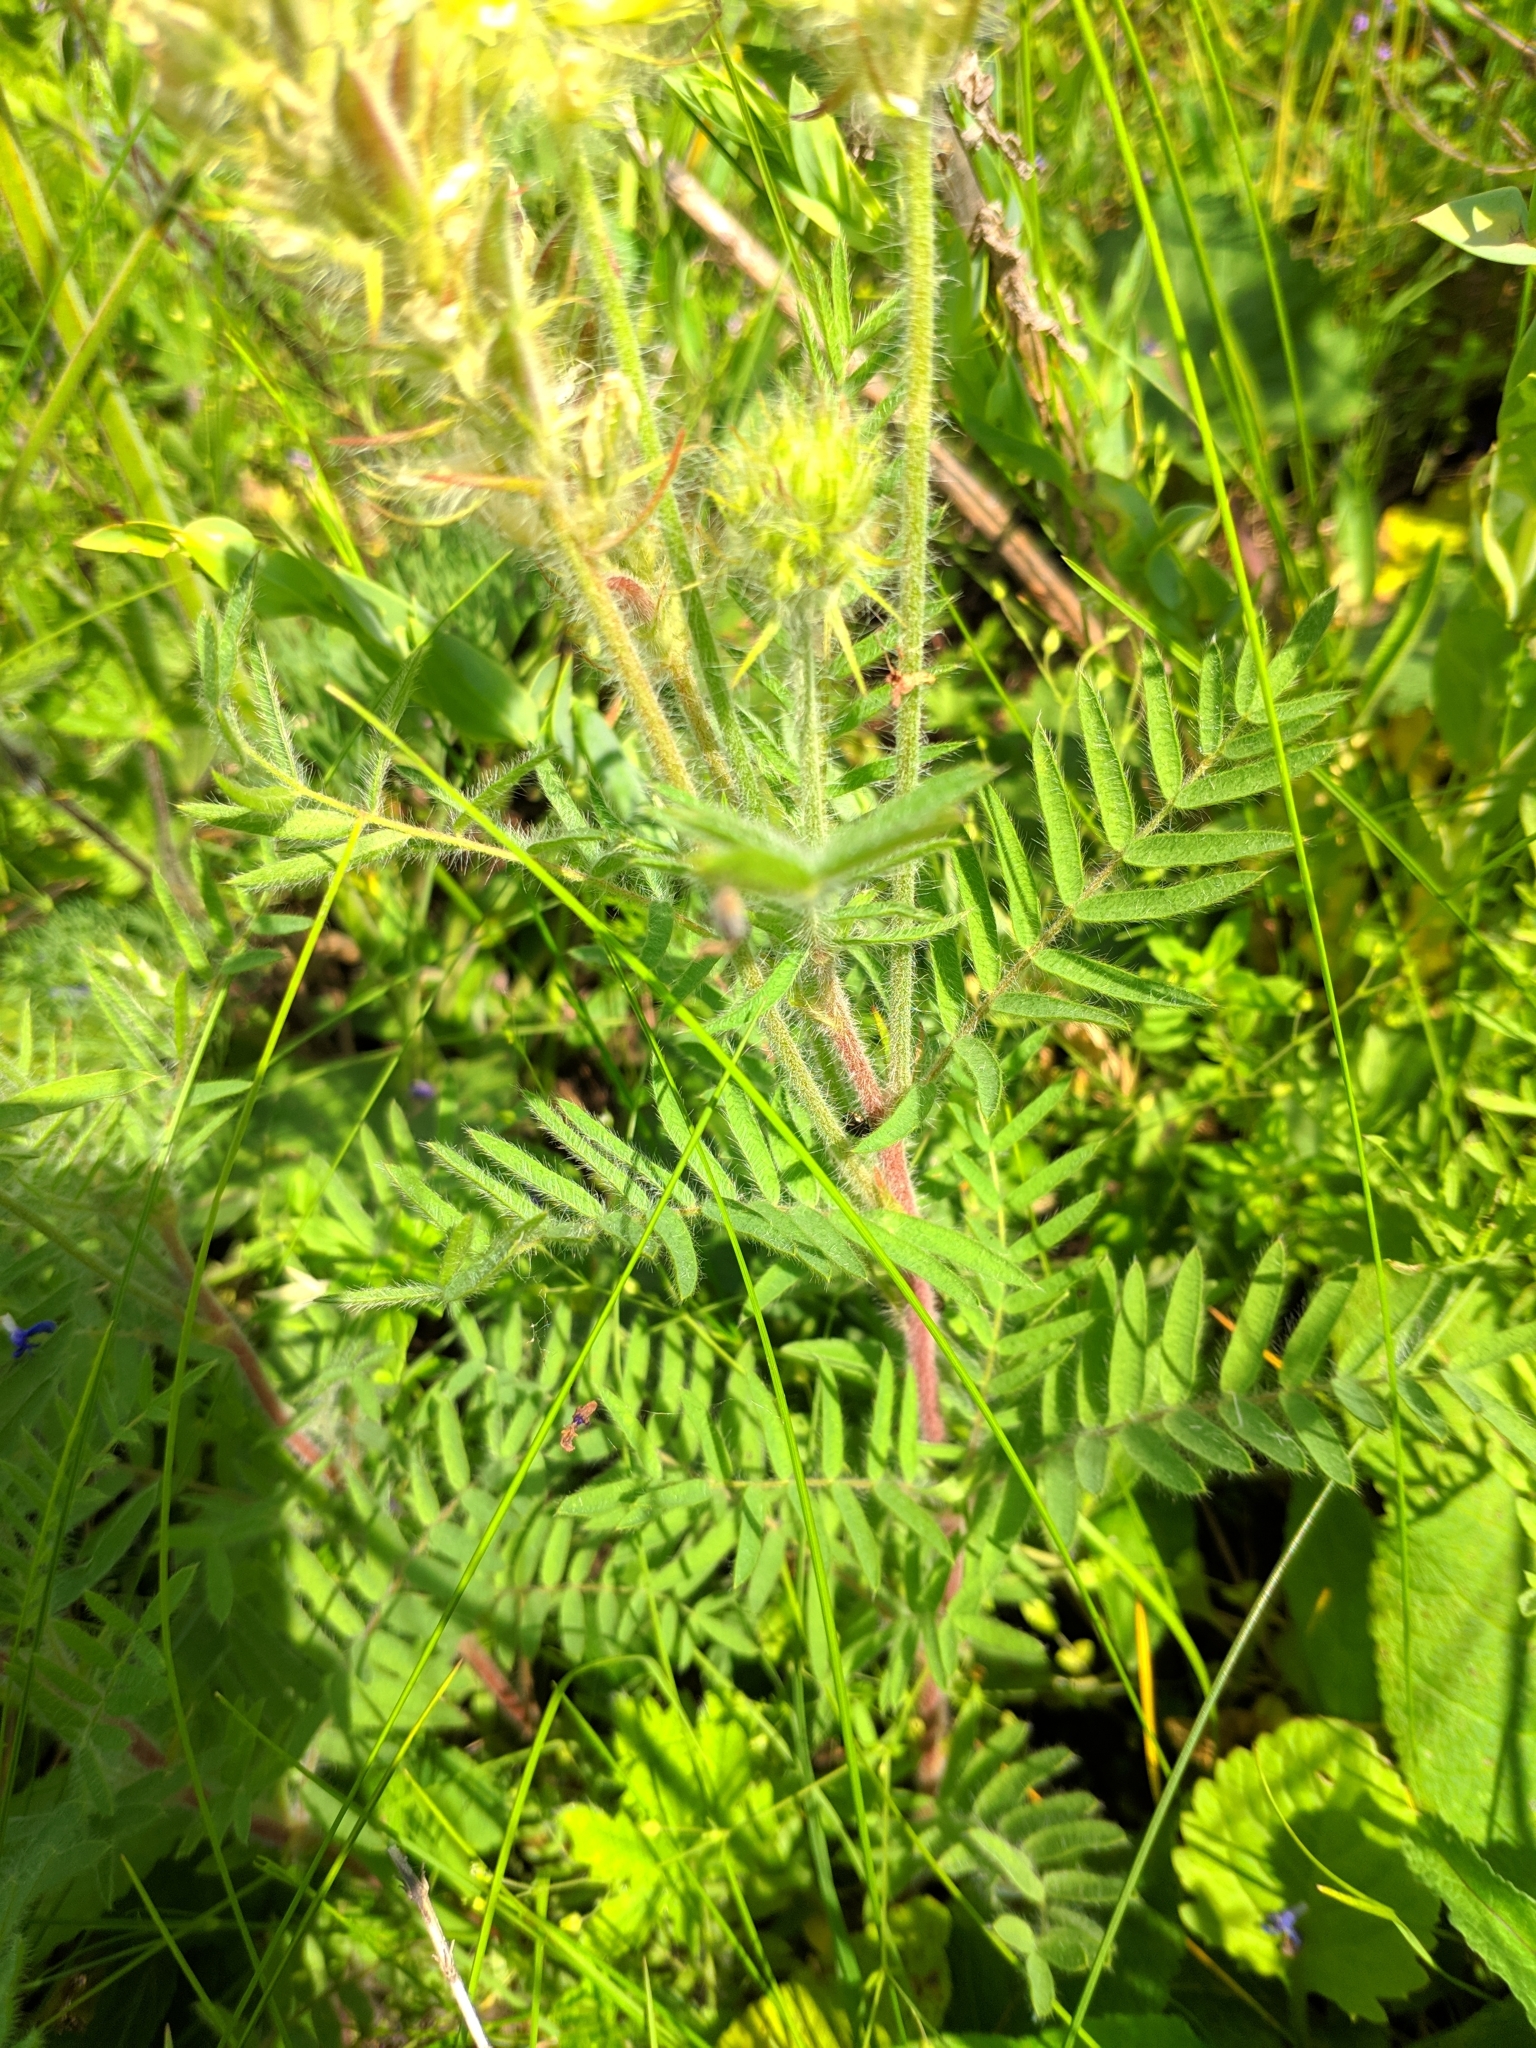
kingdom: Plantae
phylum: Tracheophyta
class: Magnoliopsida
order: Fabales
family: Fabaceae
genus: Oxytropis
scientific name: Oxytropis pilosa
